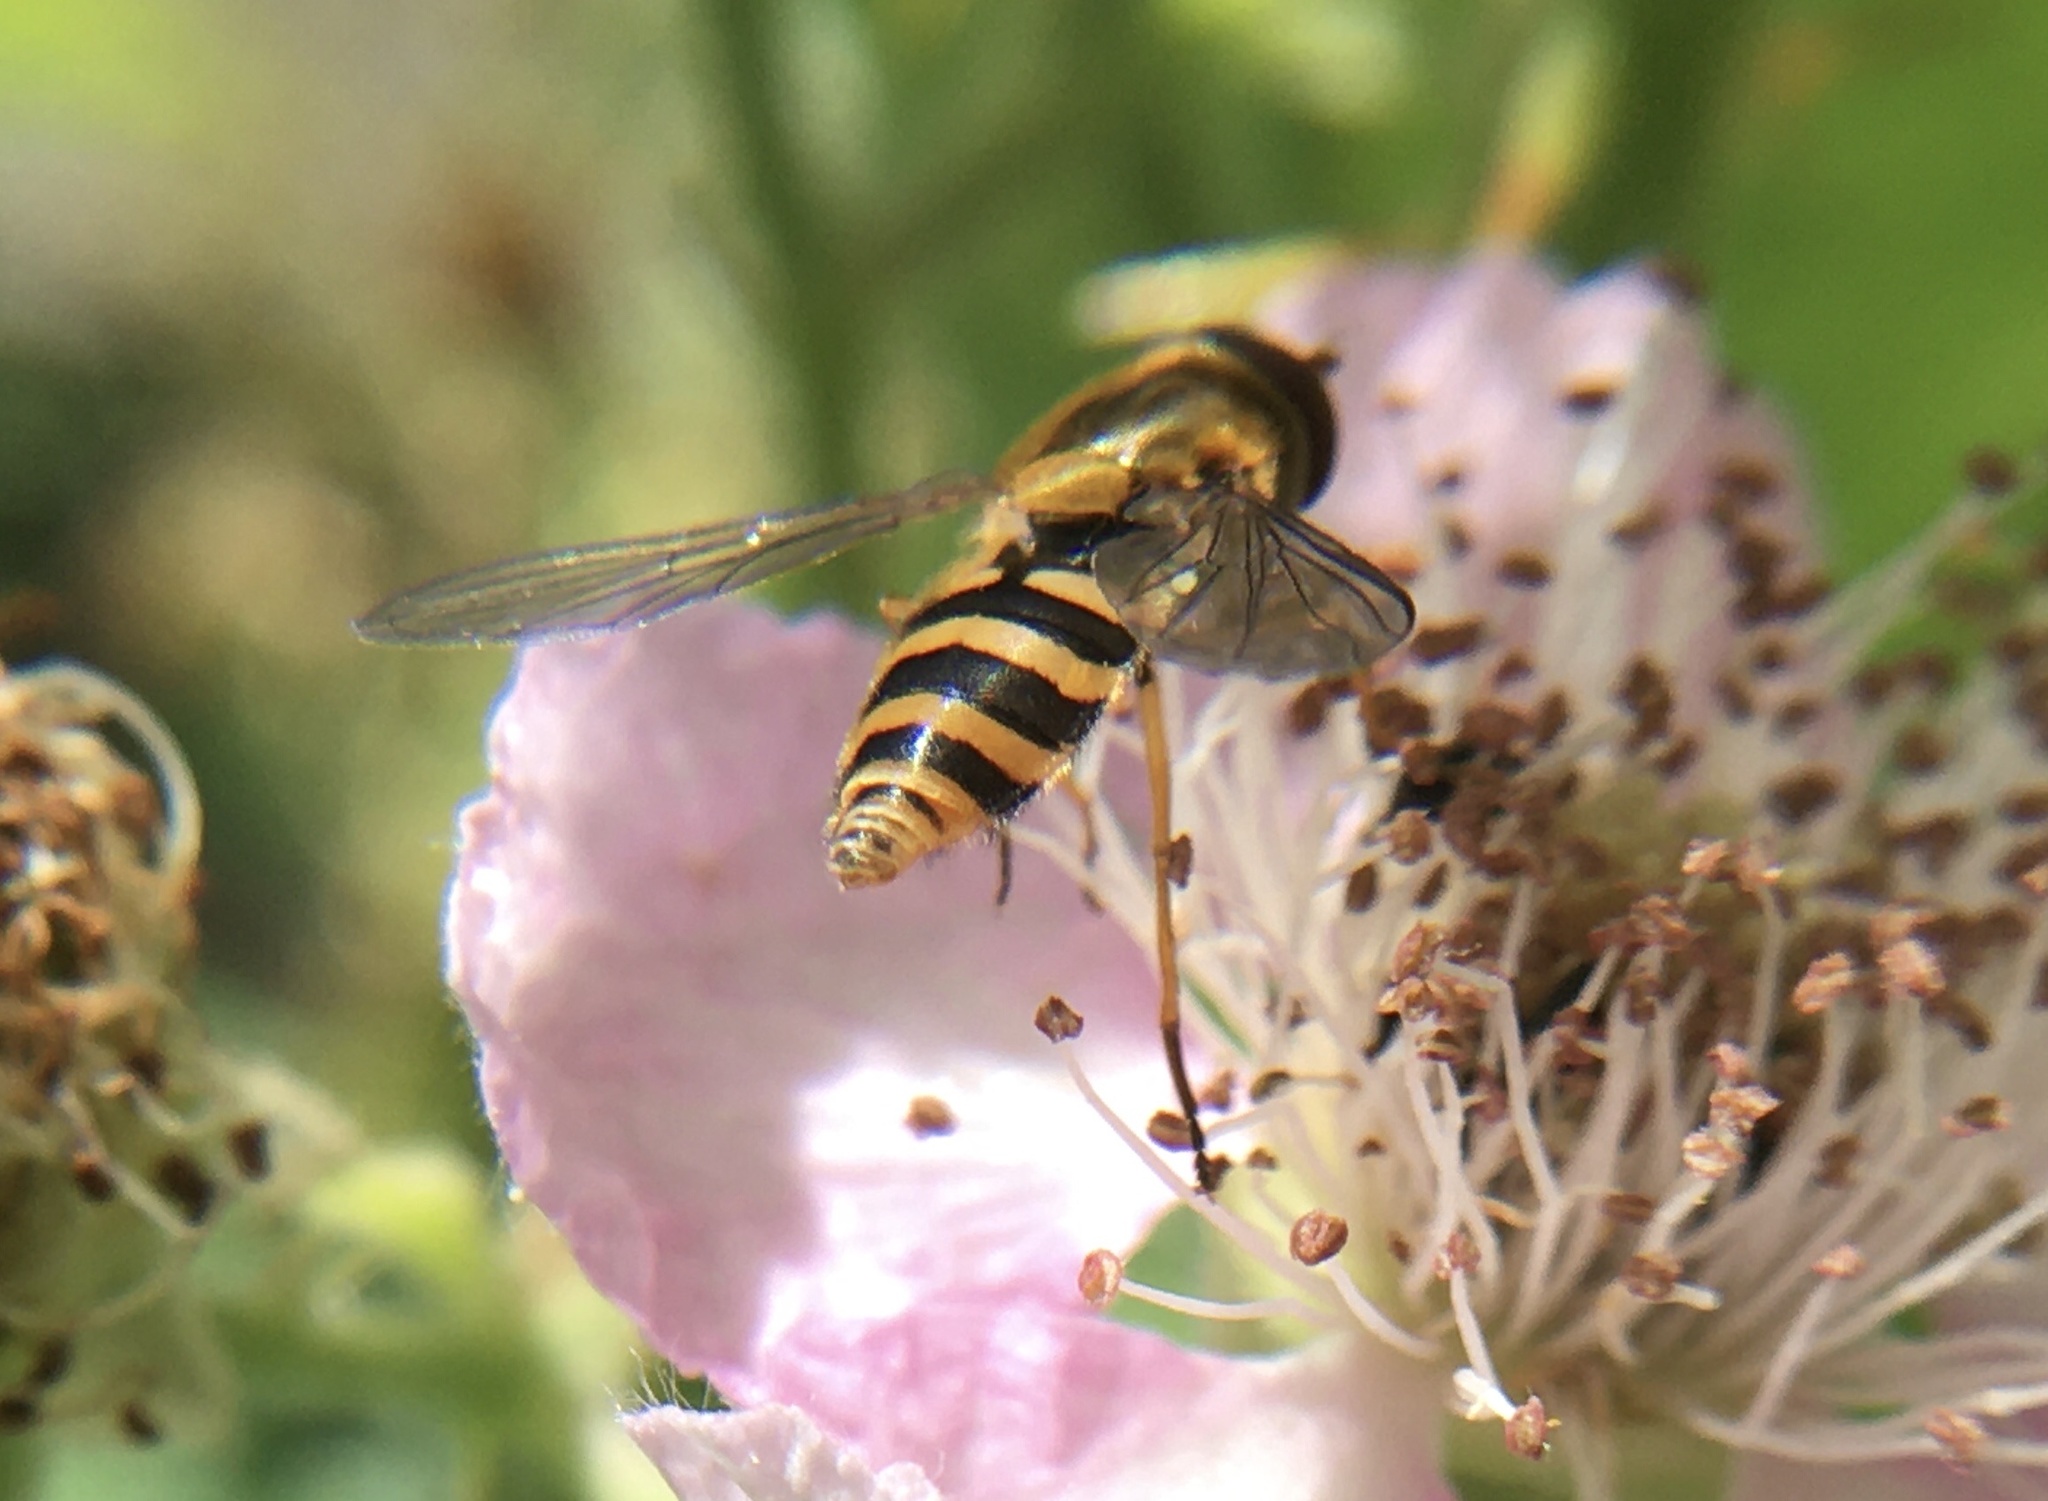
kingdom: Animalia
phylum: Arthropoda
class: Insecta
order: Diptera
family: Syrphidae
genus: Syrphus
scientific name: Syrphus ribesii
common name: Common flower fly
